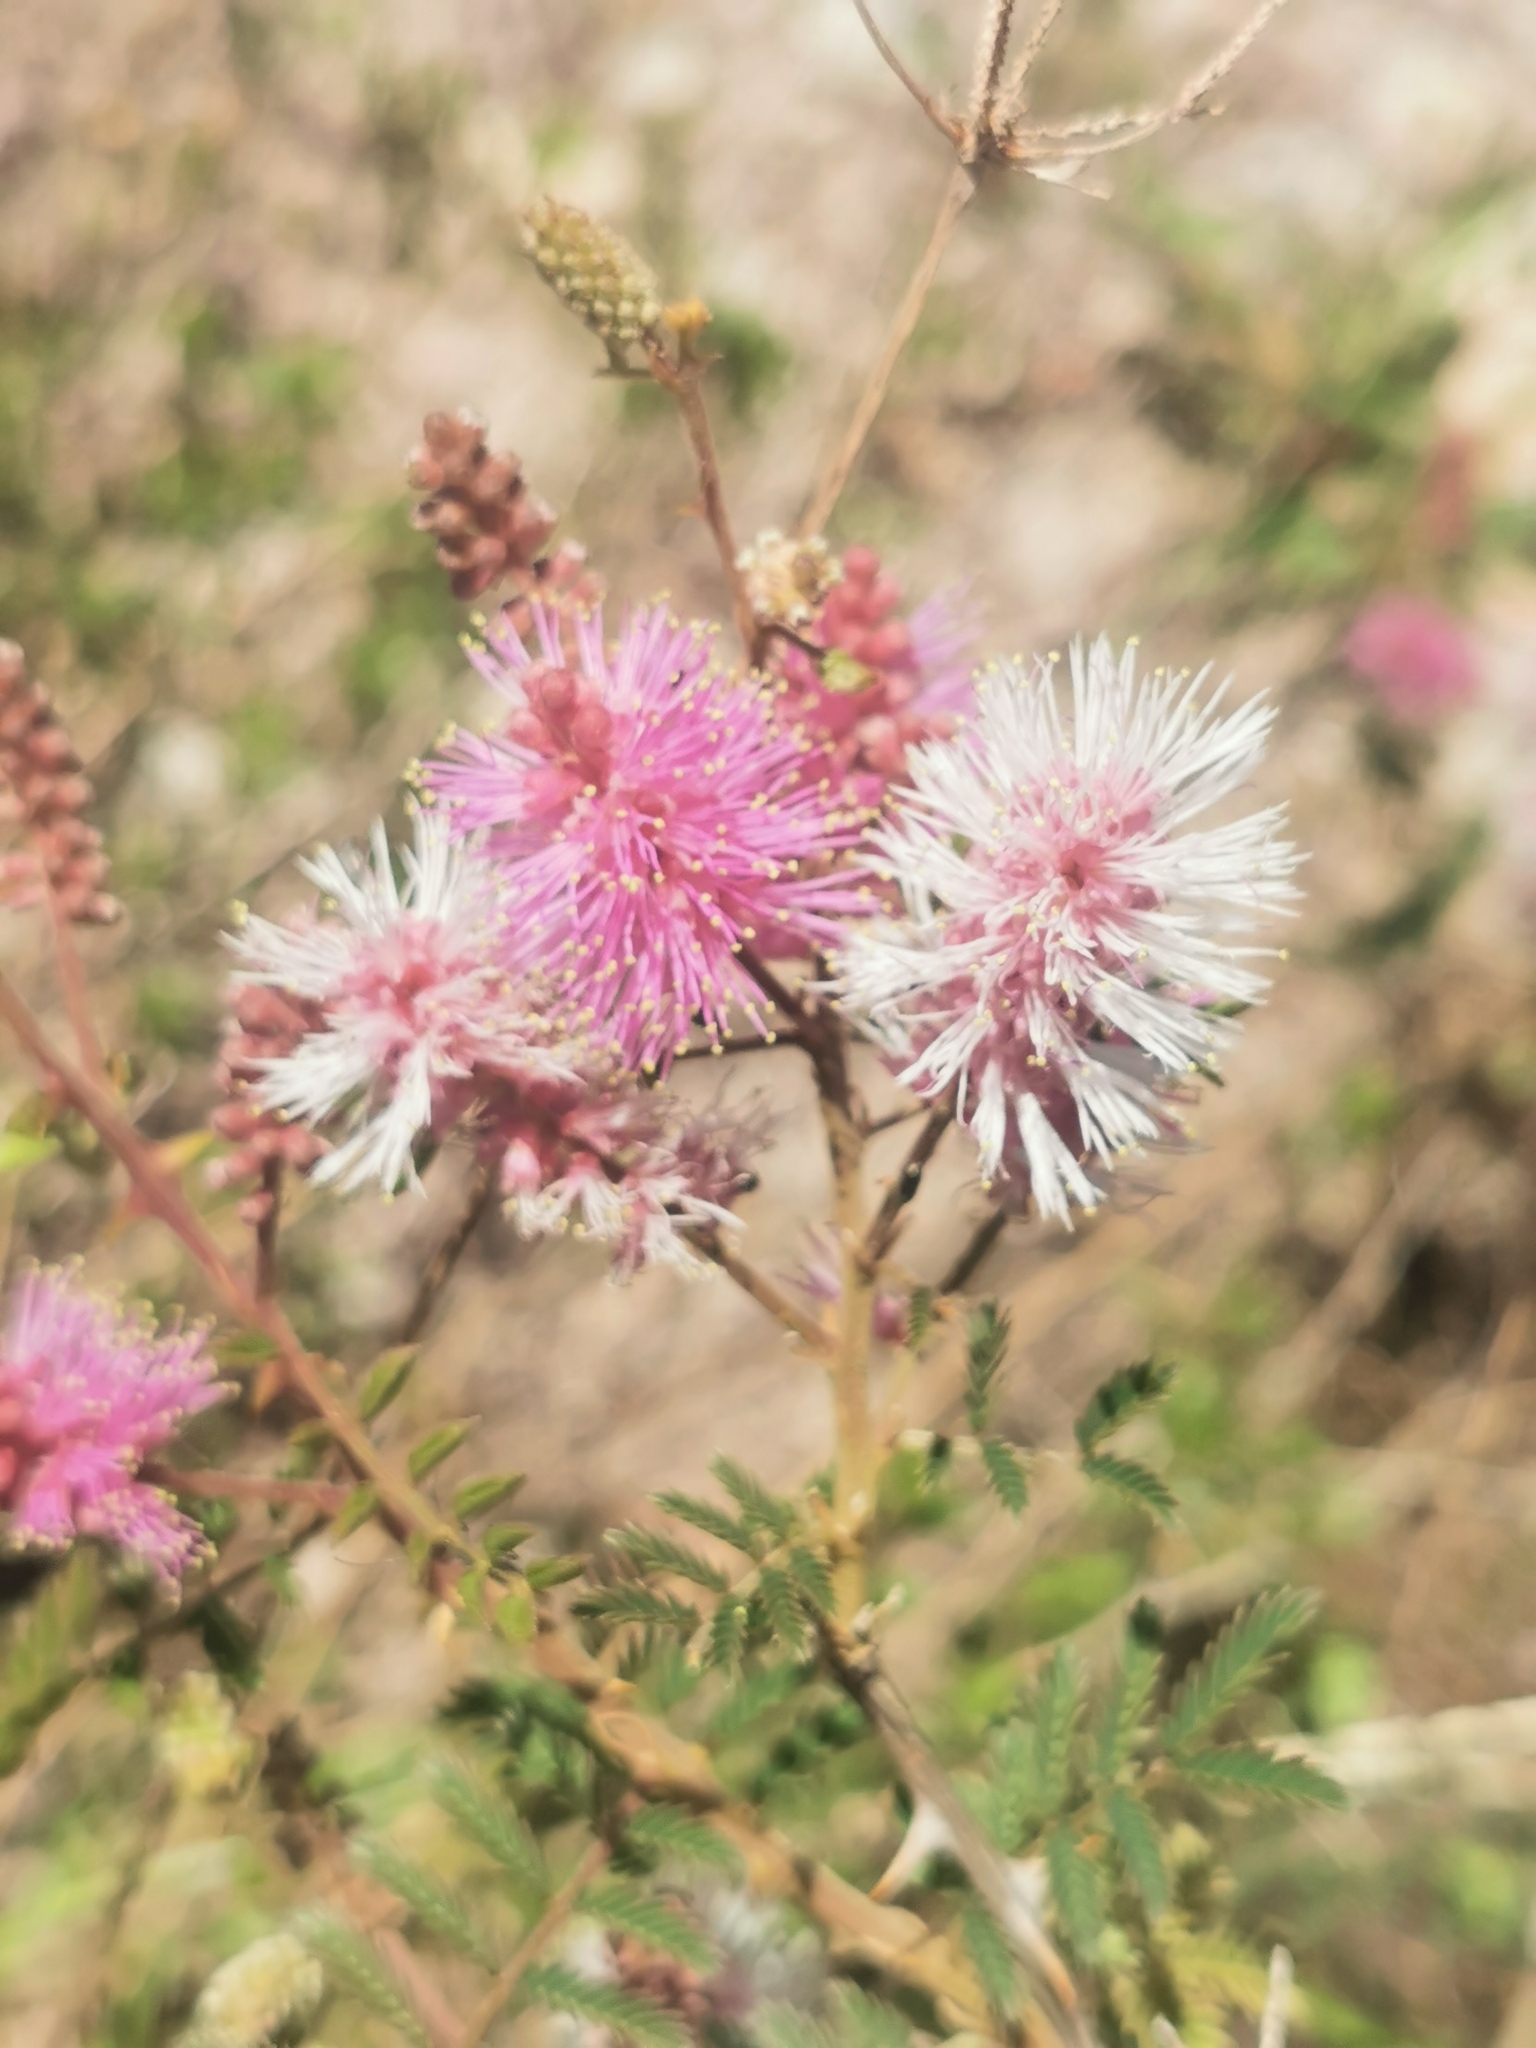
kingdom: Plantae
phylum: Tracheophyta
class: Magnoliopsida
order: Fabales
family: Fabaceae
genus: Mimosa
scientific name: Mimosa dysocarpa
